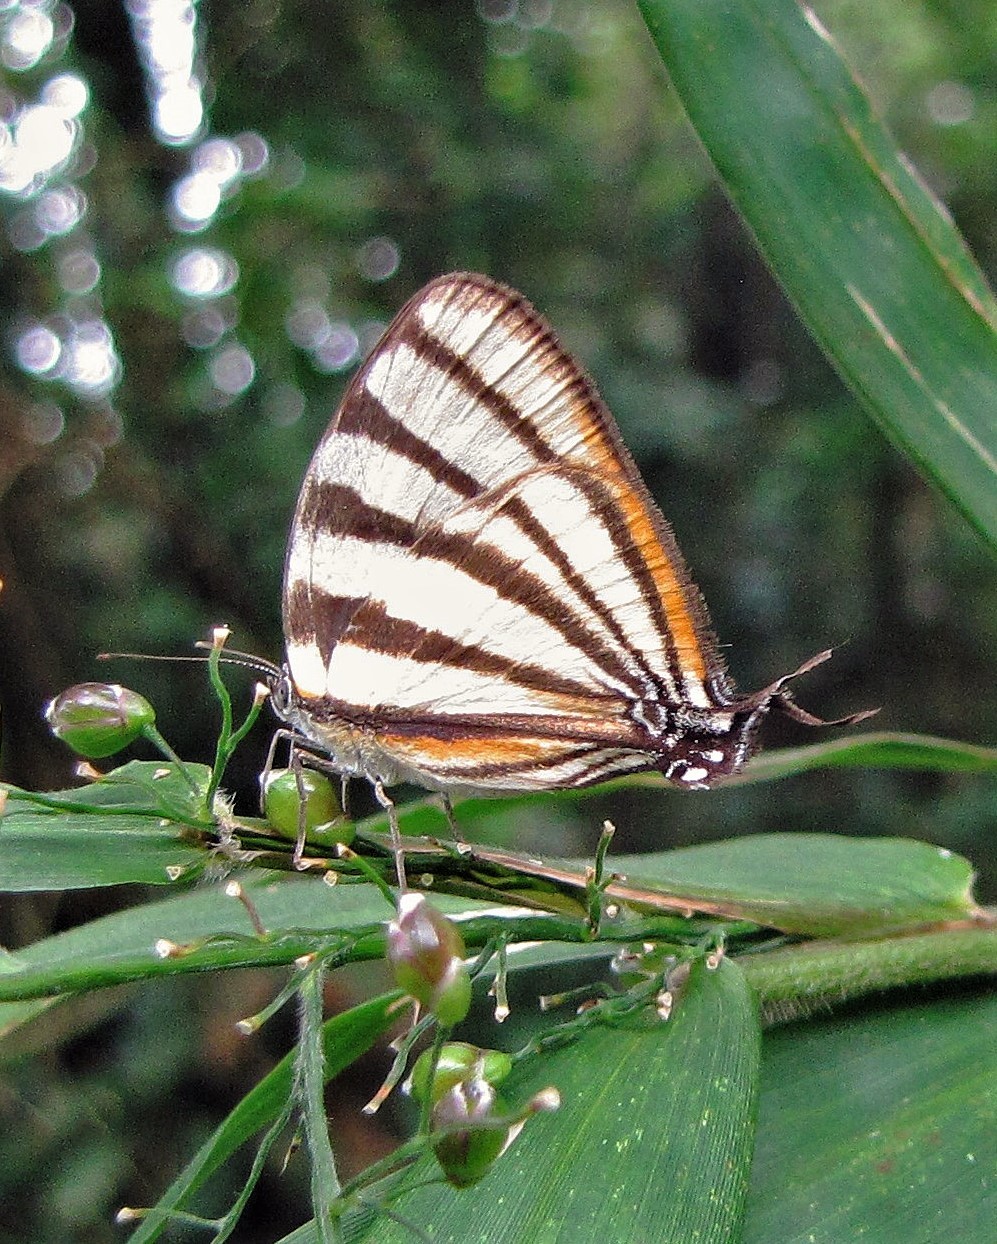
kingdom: Animalia
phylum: Arthropoda
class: Insecta
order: Lepidoptera
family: Lycaenidae
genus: Arawacus
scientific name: Arawacus separata
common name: Separated stripestreak
